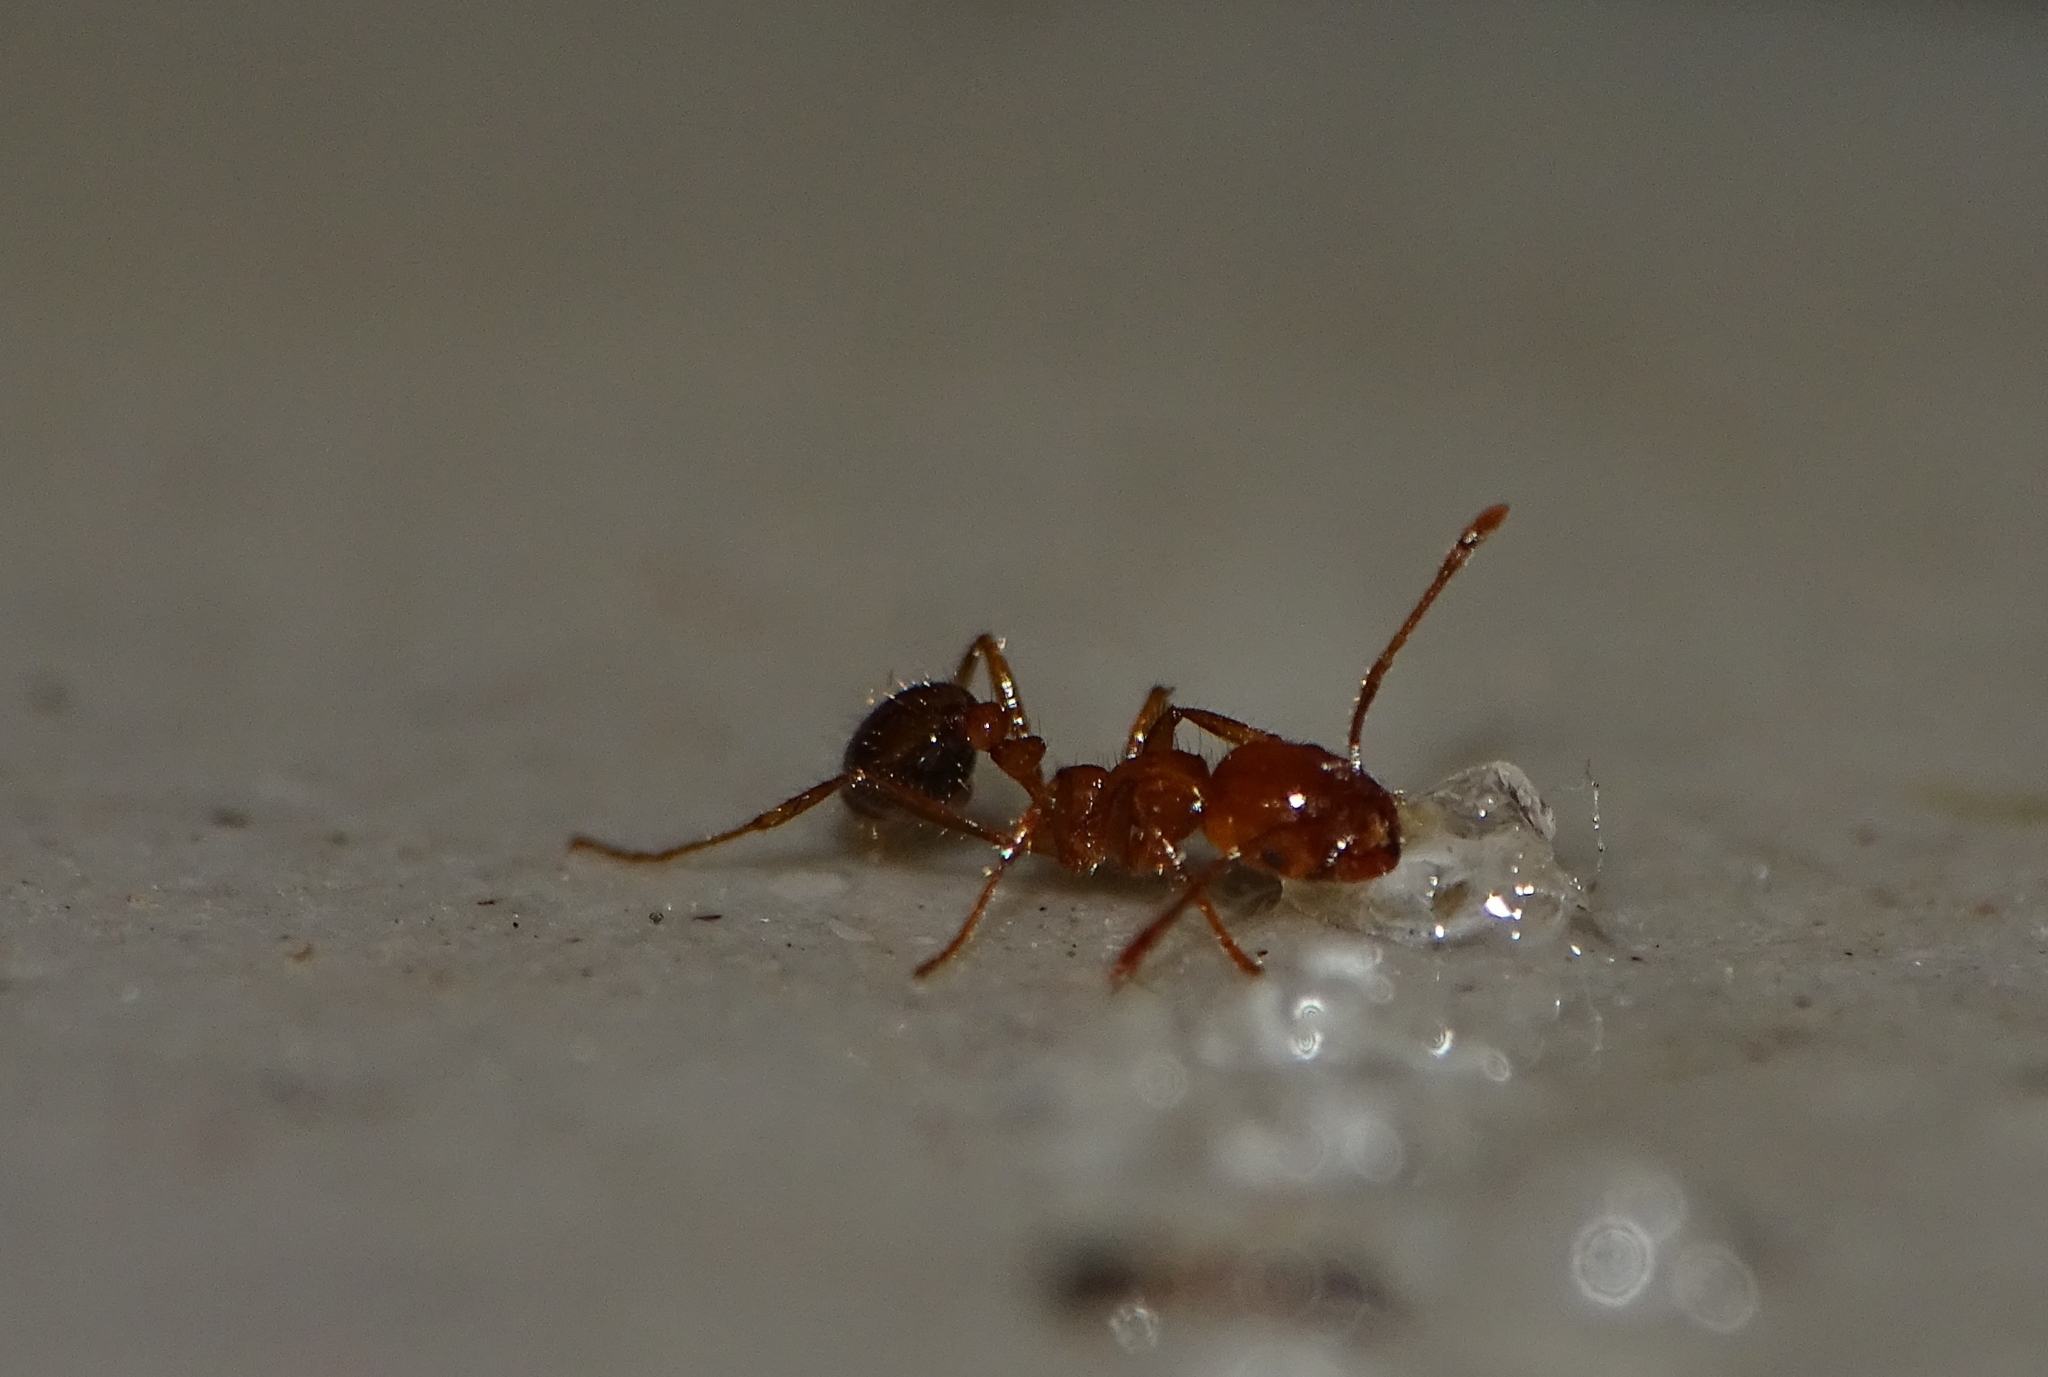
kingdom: Animalia
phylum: Arthropoda
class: Insecta
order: Hymenoptera
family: Formicidae
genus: Solenopsis
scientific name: Solenopsis geminata
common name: Tropical fire ant
